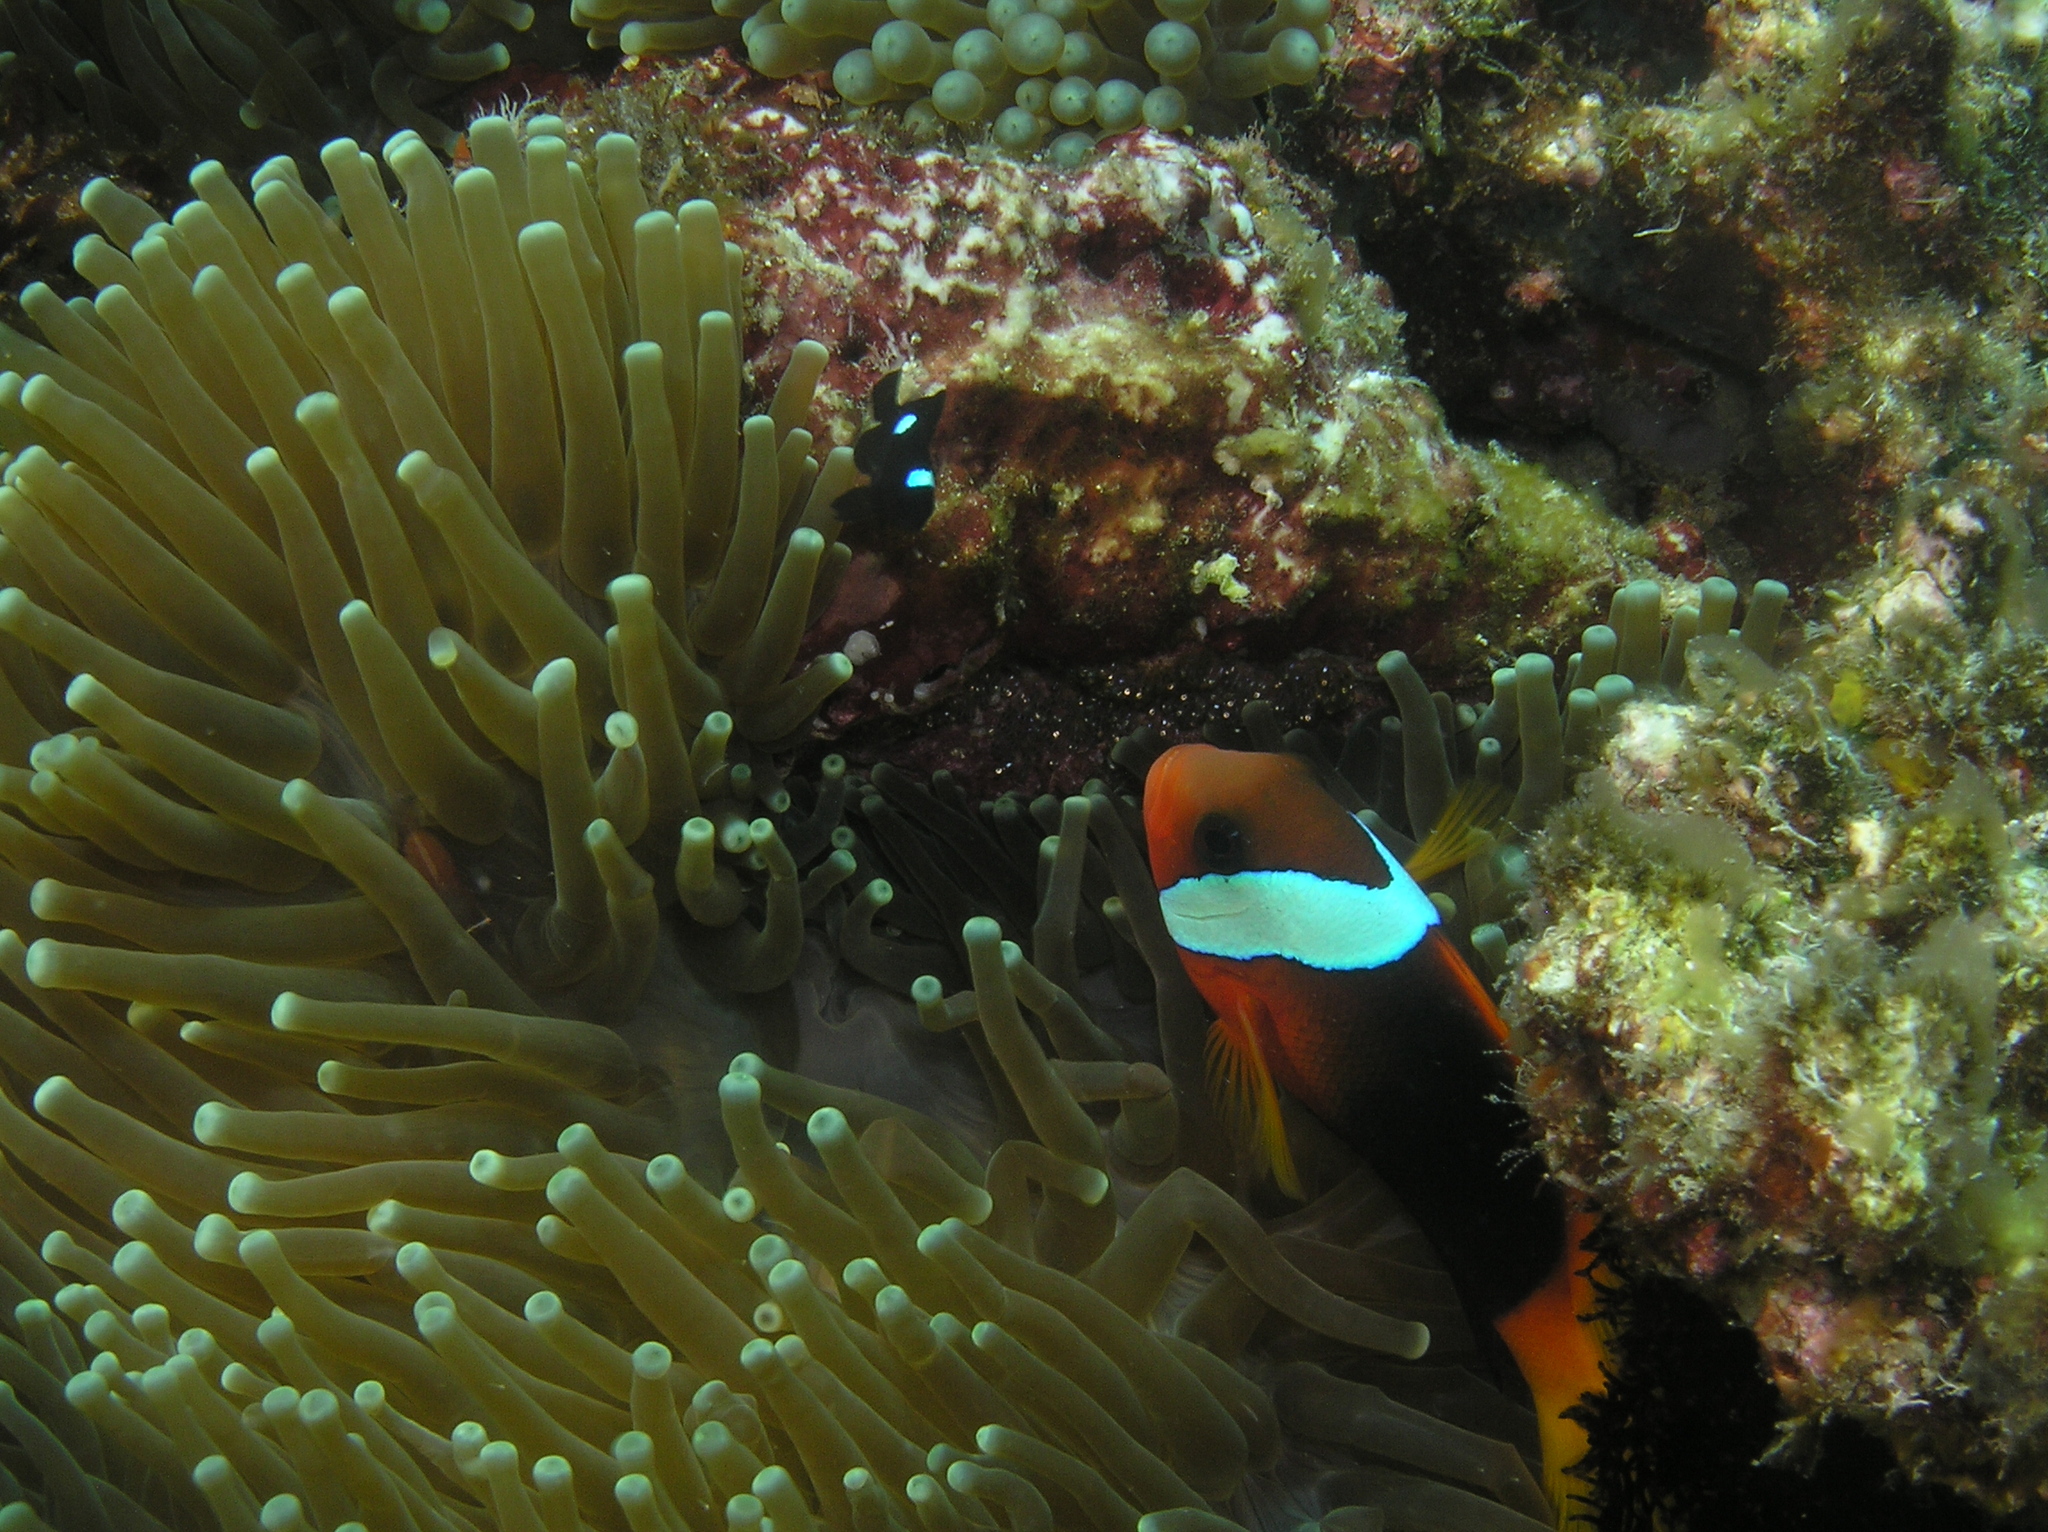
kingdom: Animalia
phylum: Chordata
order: Perciformes
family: Pomacentridae
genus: Amphiprion
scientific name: Amphiprion melanopus
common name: Black anemonefish
